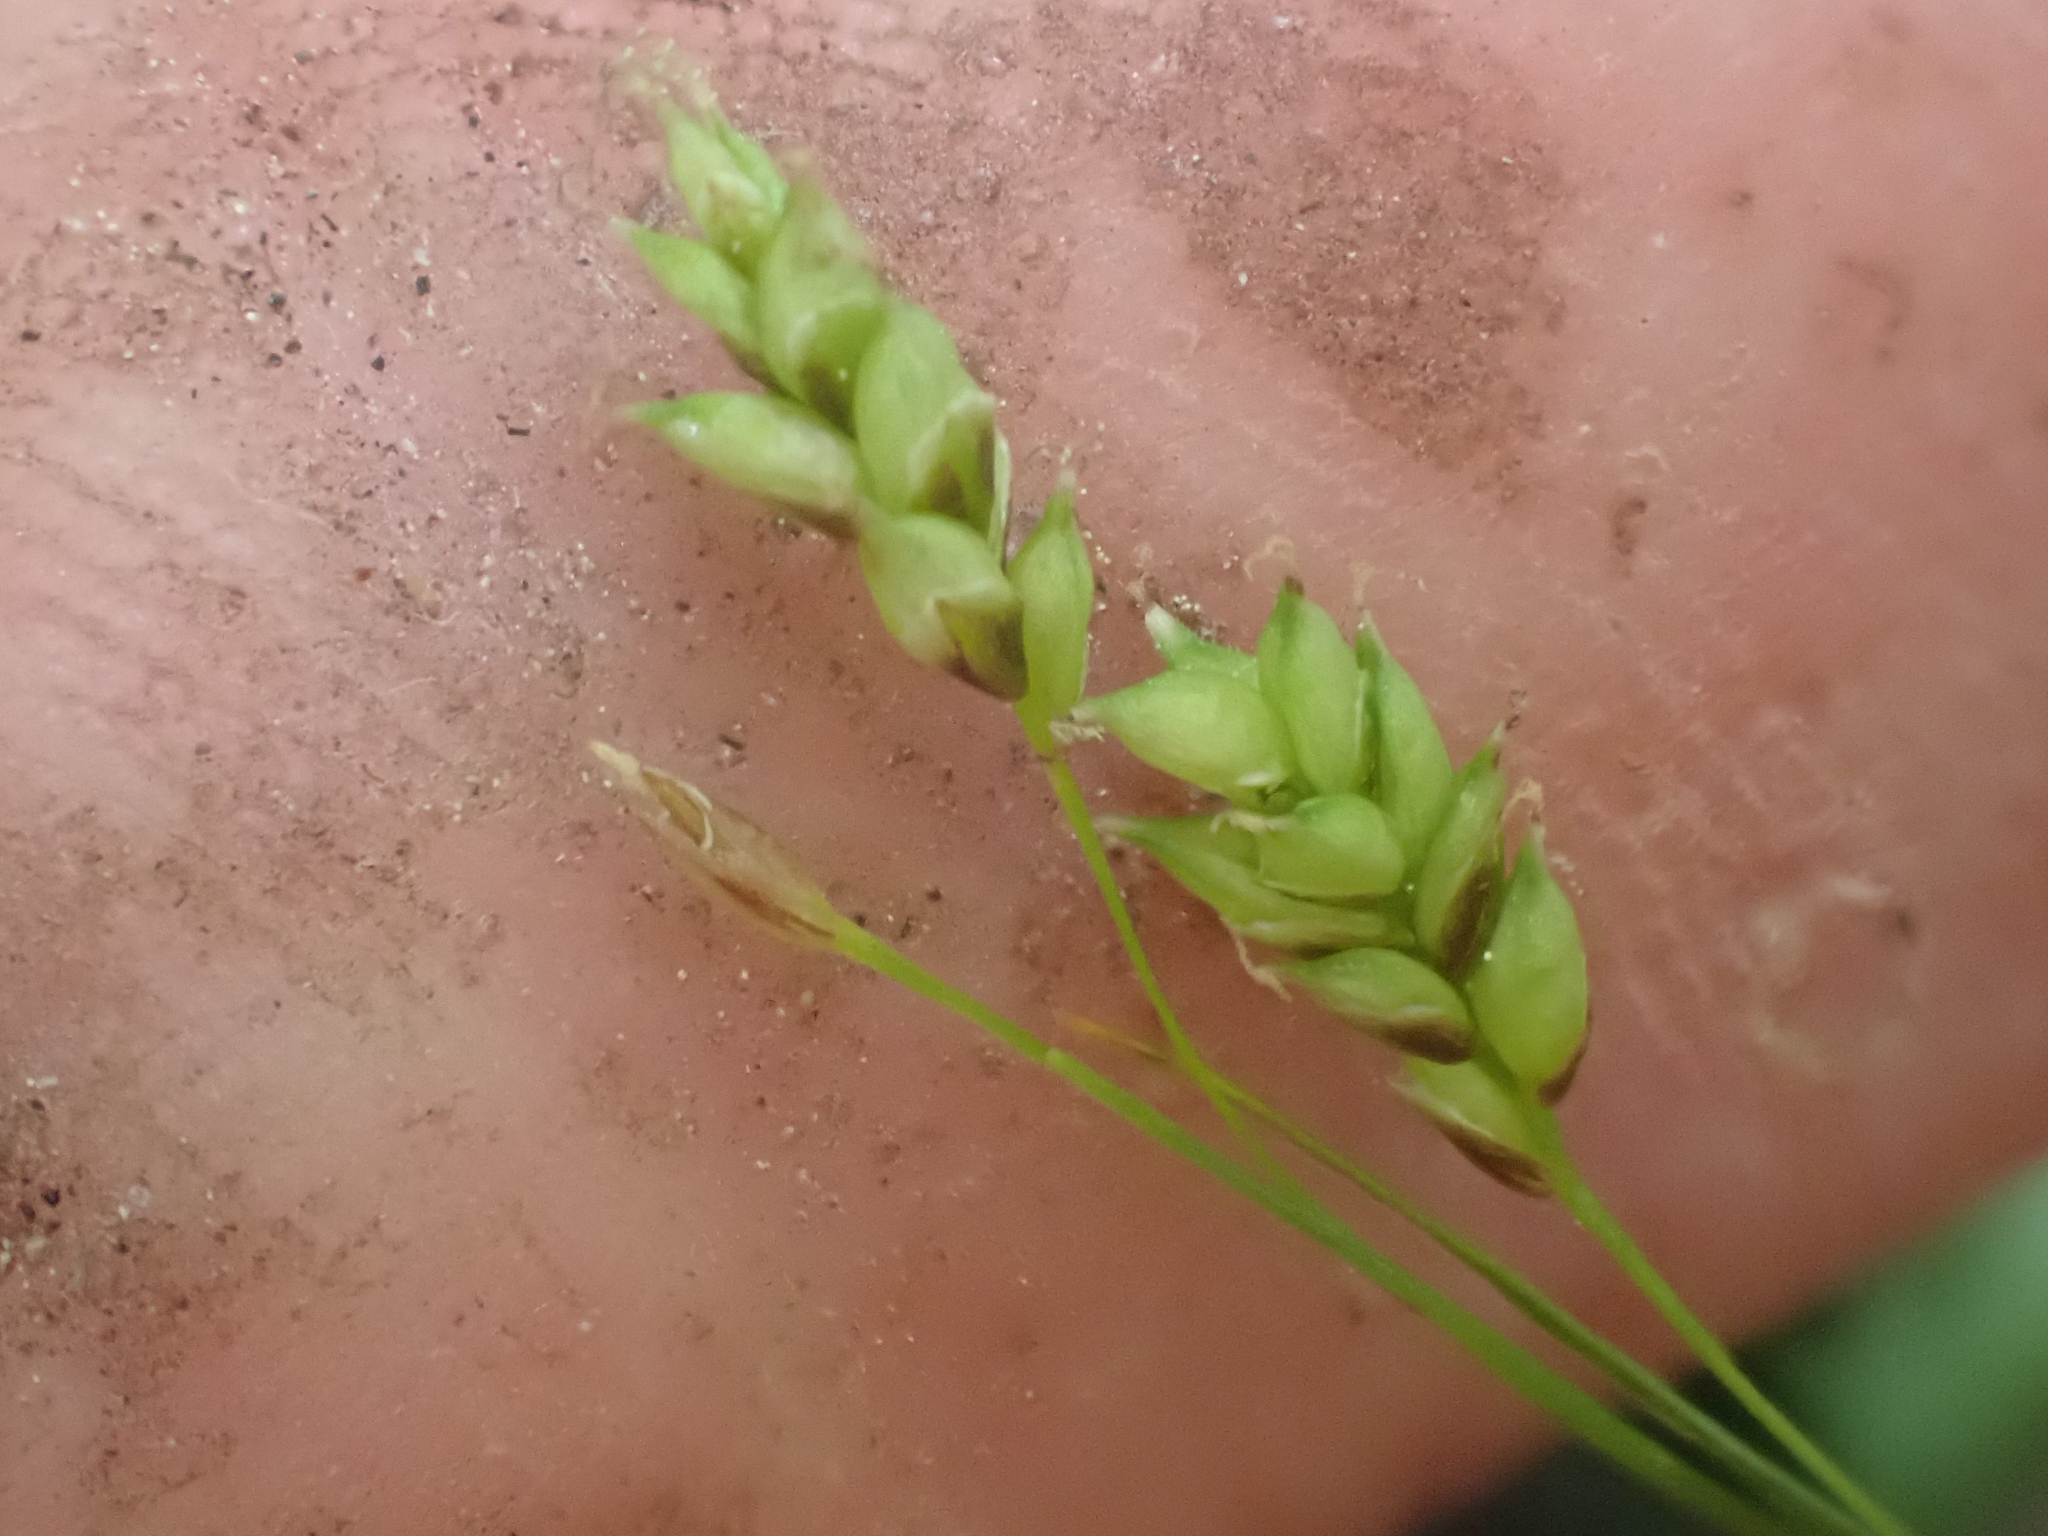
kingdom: Plantae
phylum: Tracheophyta
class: Liliopsida
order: Poales
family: Cyperaceae
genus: Carex
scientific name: Carex capillaris
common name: Hair sedge
